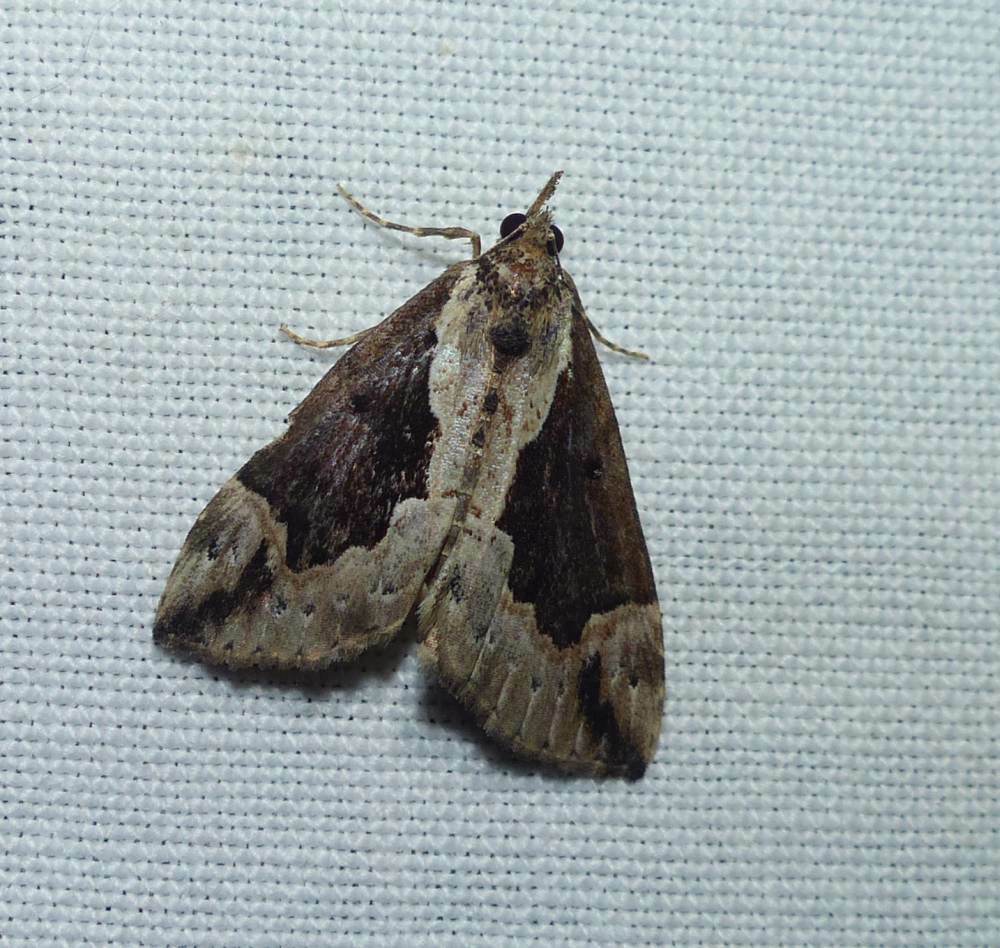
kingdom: Animalia
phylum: Arthropoda
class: Insecta
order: Lepidoptera
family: Erebidae
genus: Hypena
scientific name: Hypena baltimoralis
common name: Baltimore snout
